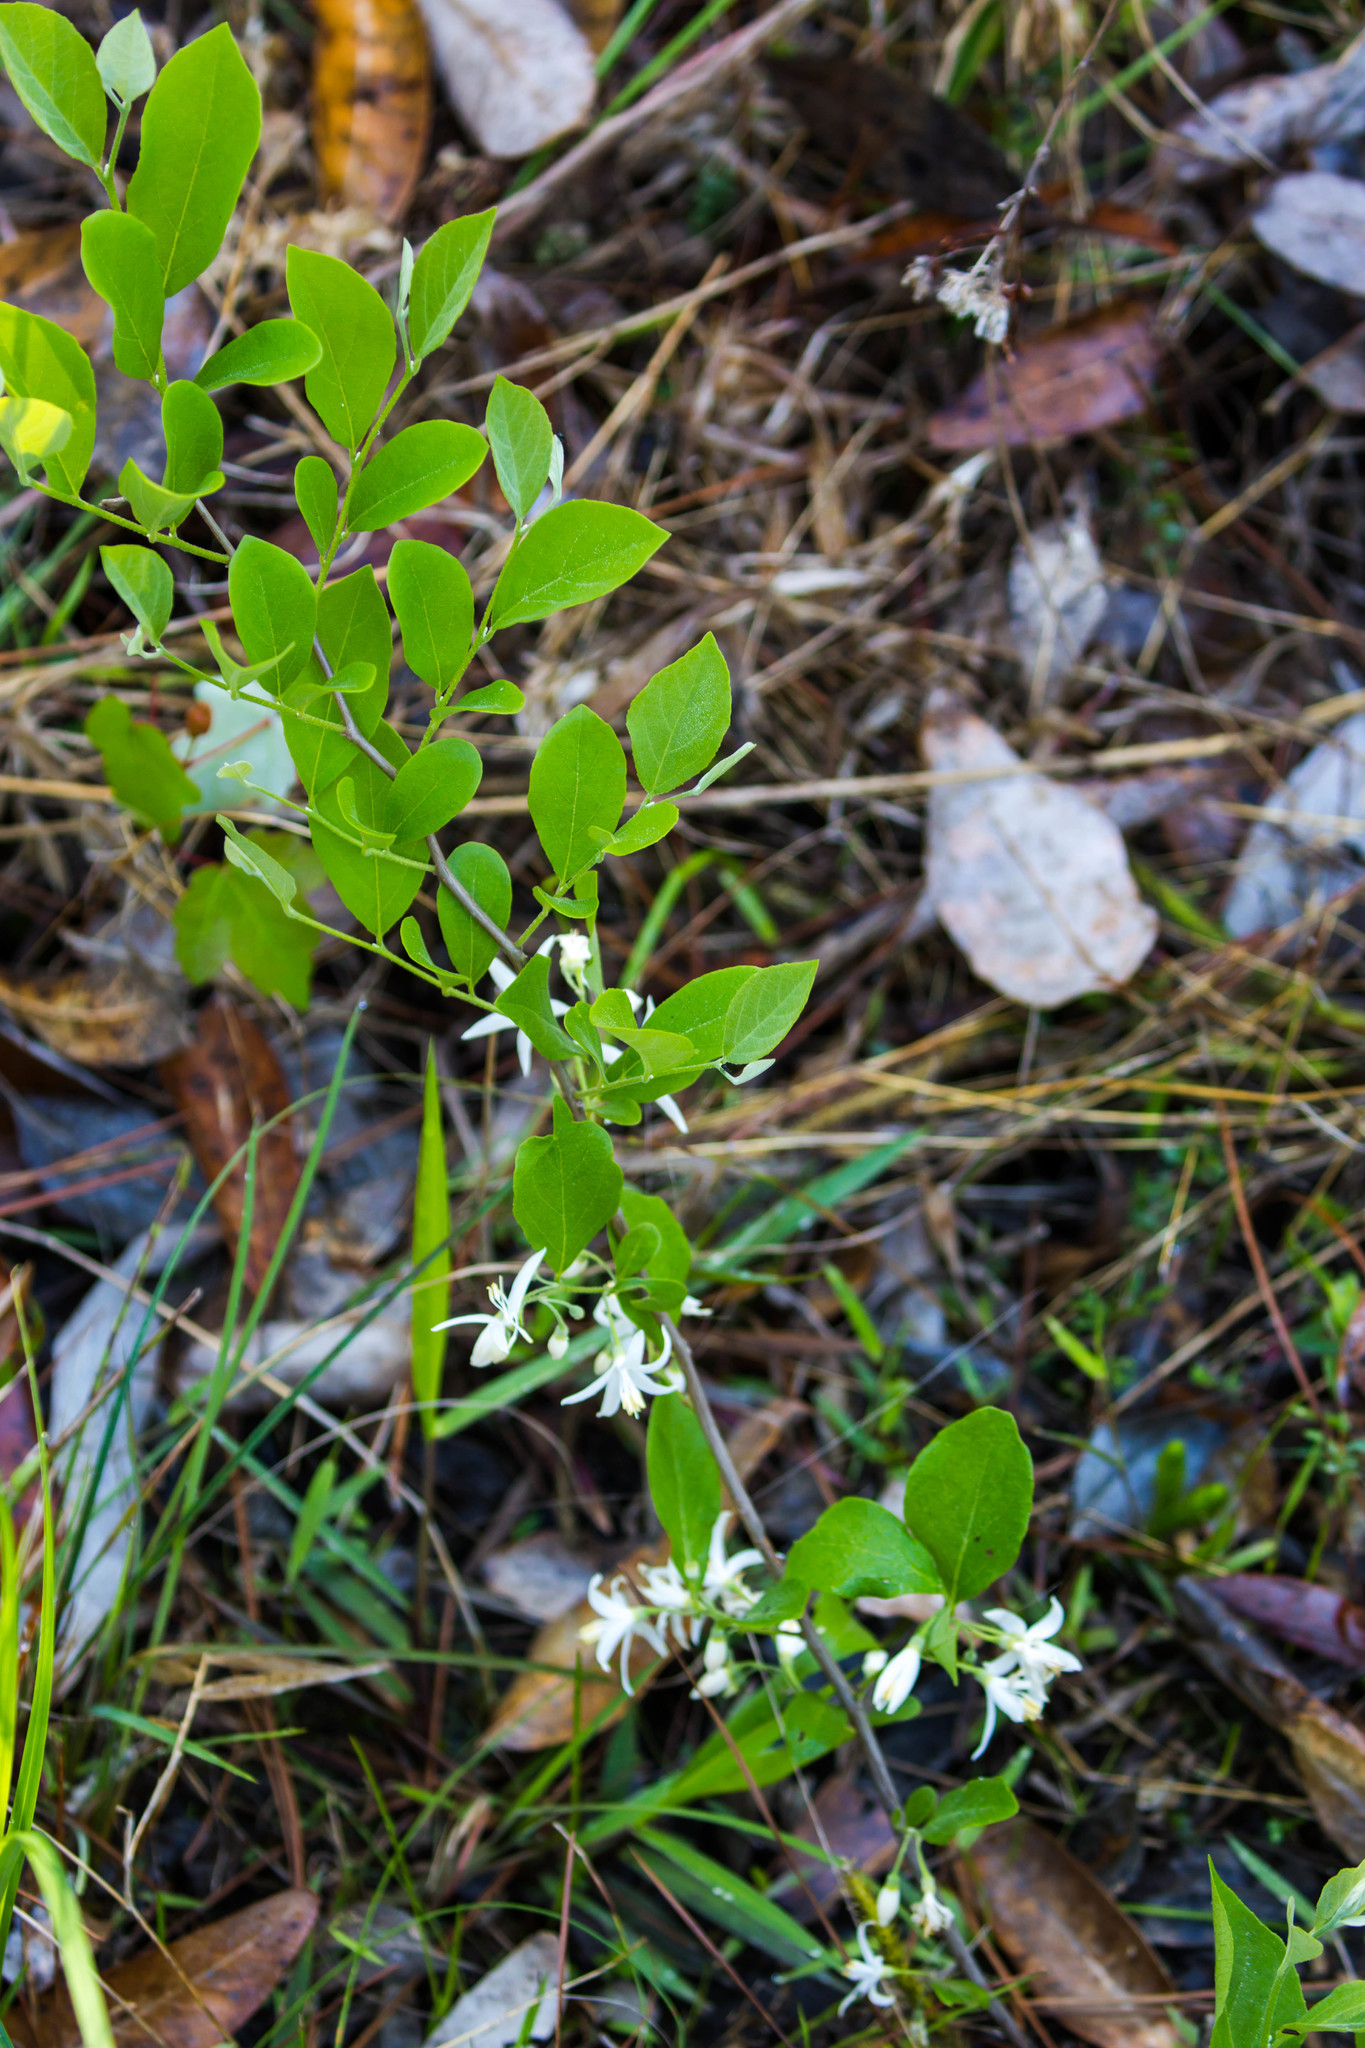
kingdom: Plantae
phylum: Tracheophyta
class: Magnoliopsida
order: Ericales
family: Styracaceae
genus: Styrax
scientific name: Styrax americanus
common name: American snowbell
